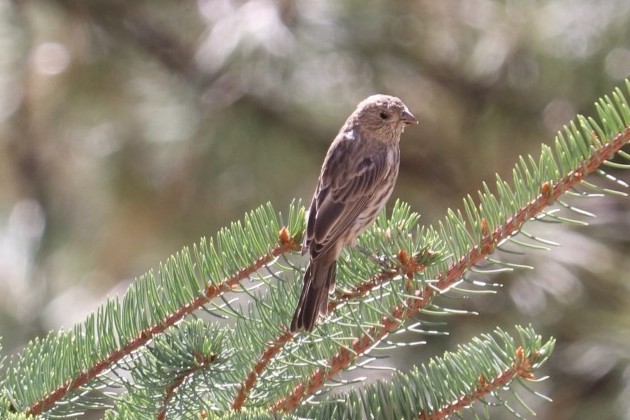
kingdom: Animalia
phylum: Chordata
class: Aves
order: Passeriformes
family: Fringillidae
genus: Haemorhous
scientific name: Haemorhous mexicanus
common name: House finch
